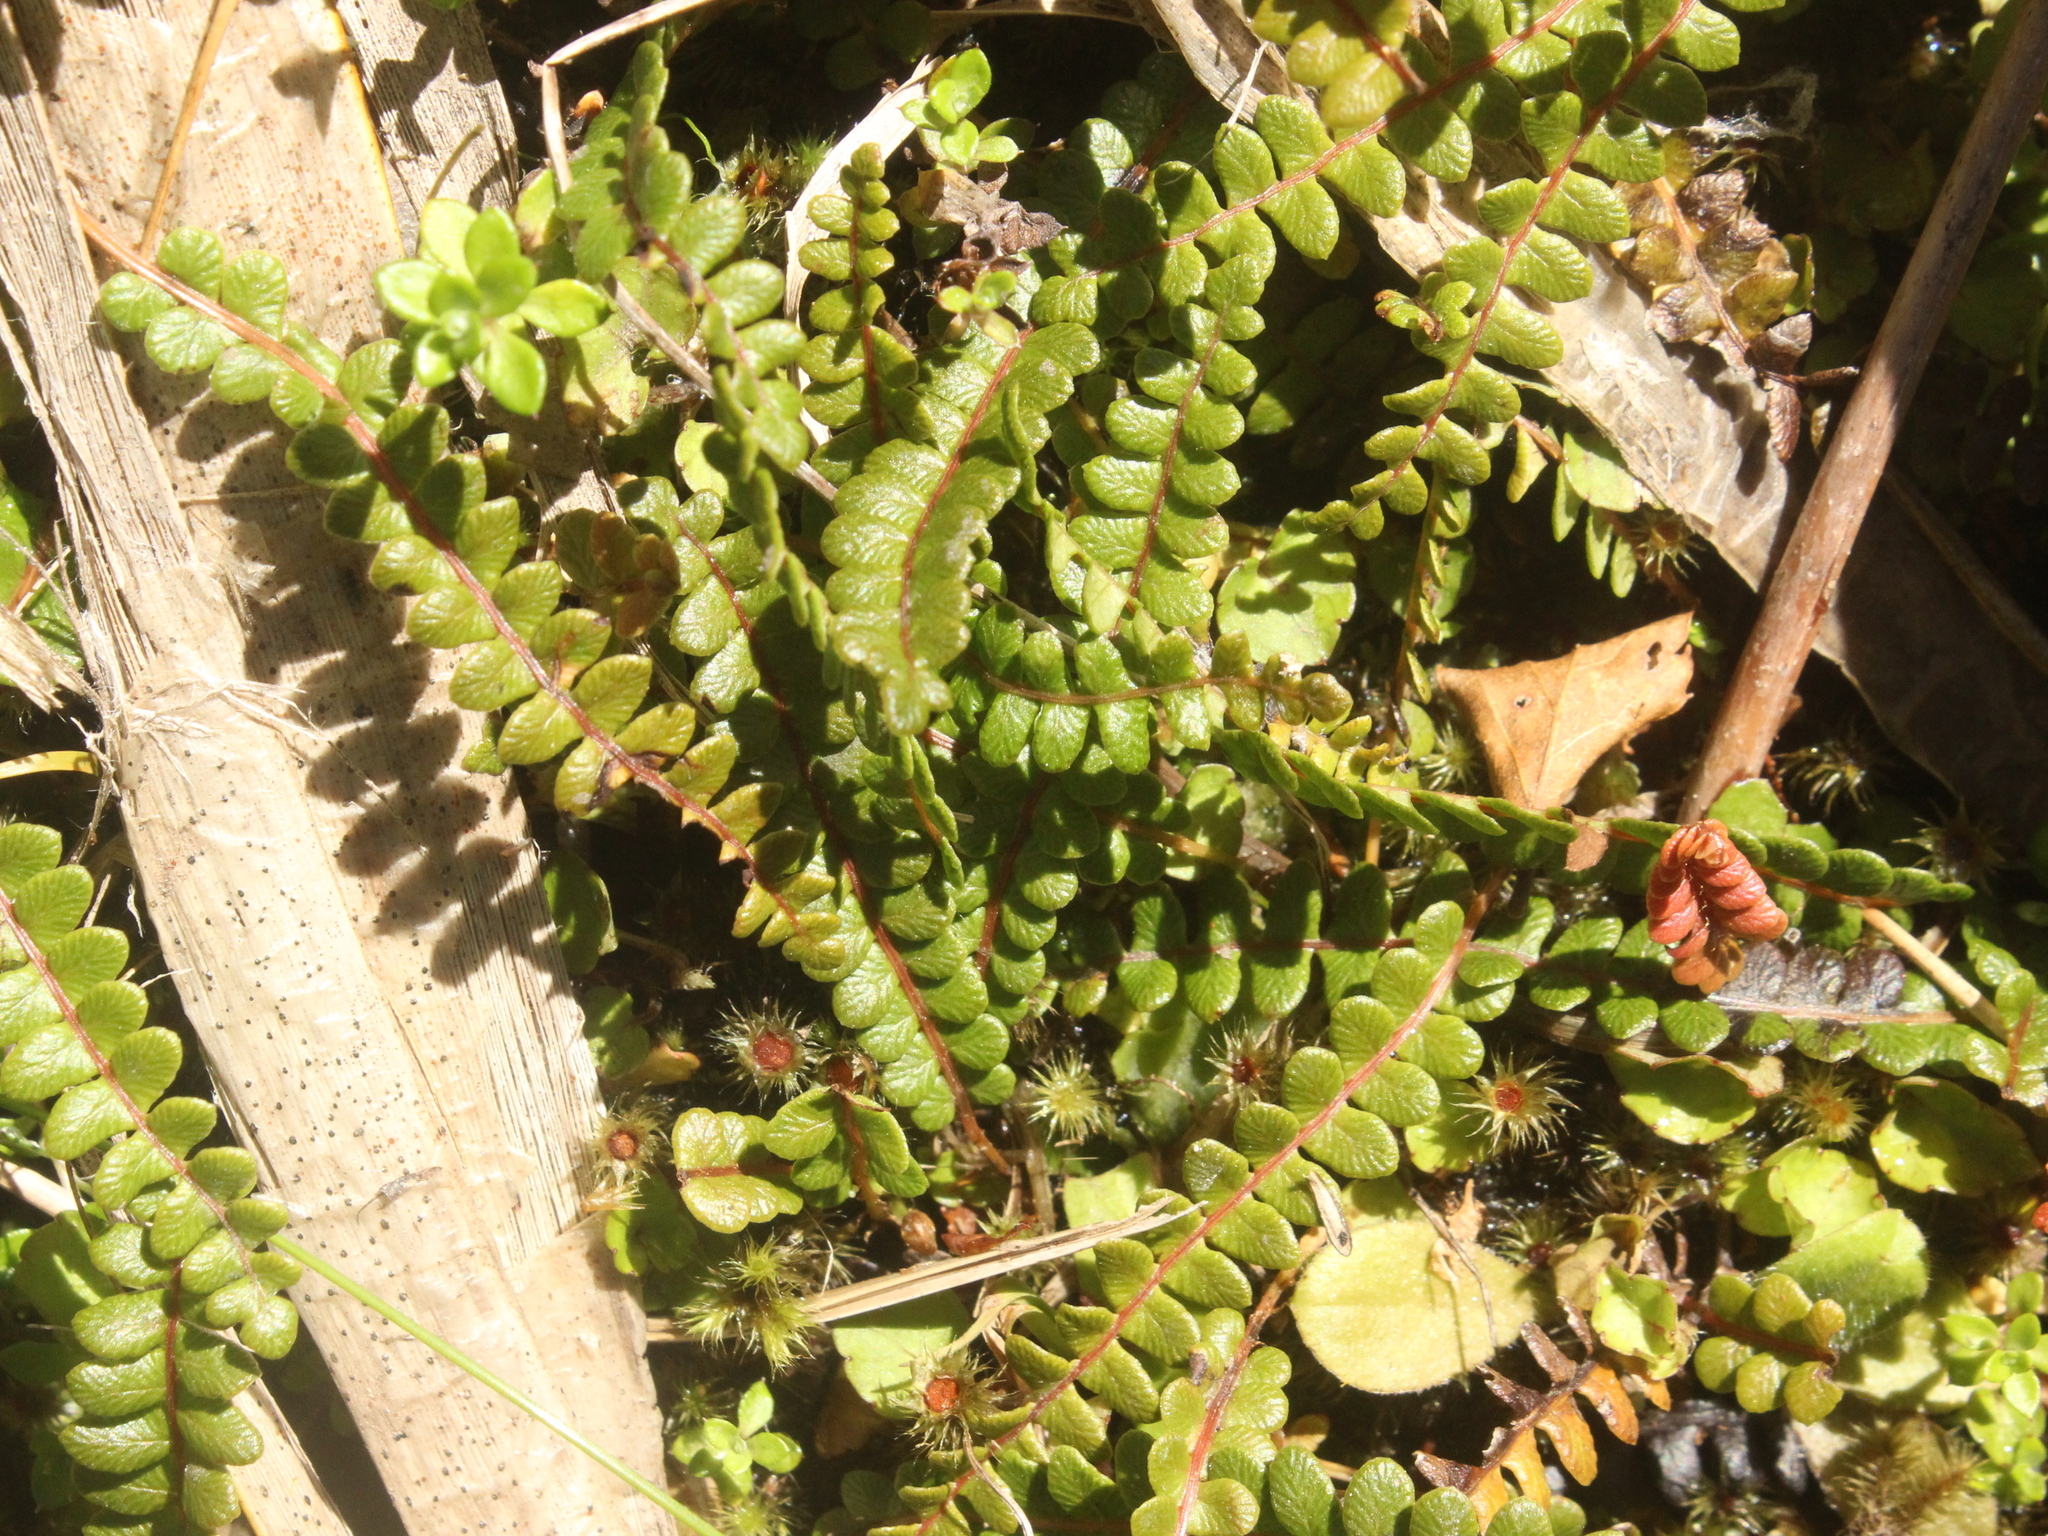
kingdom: Plantae
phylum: Tracheophyta
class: Polypodiopsida
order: Polypodiales
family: Blechnaceae
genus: Austroblechnum
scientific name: Austroblechnum penna-marina
